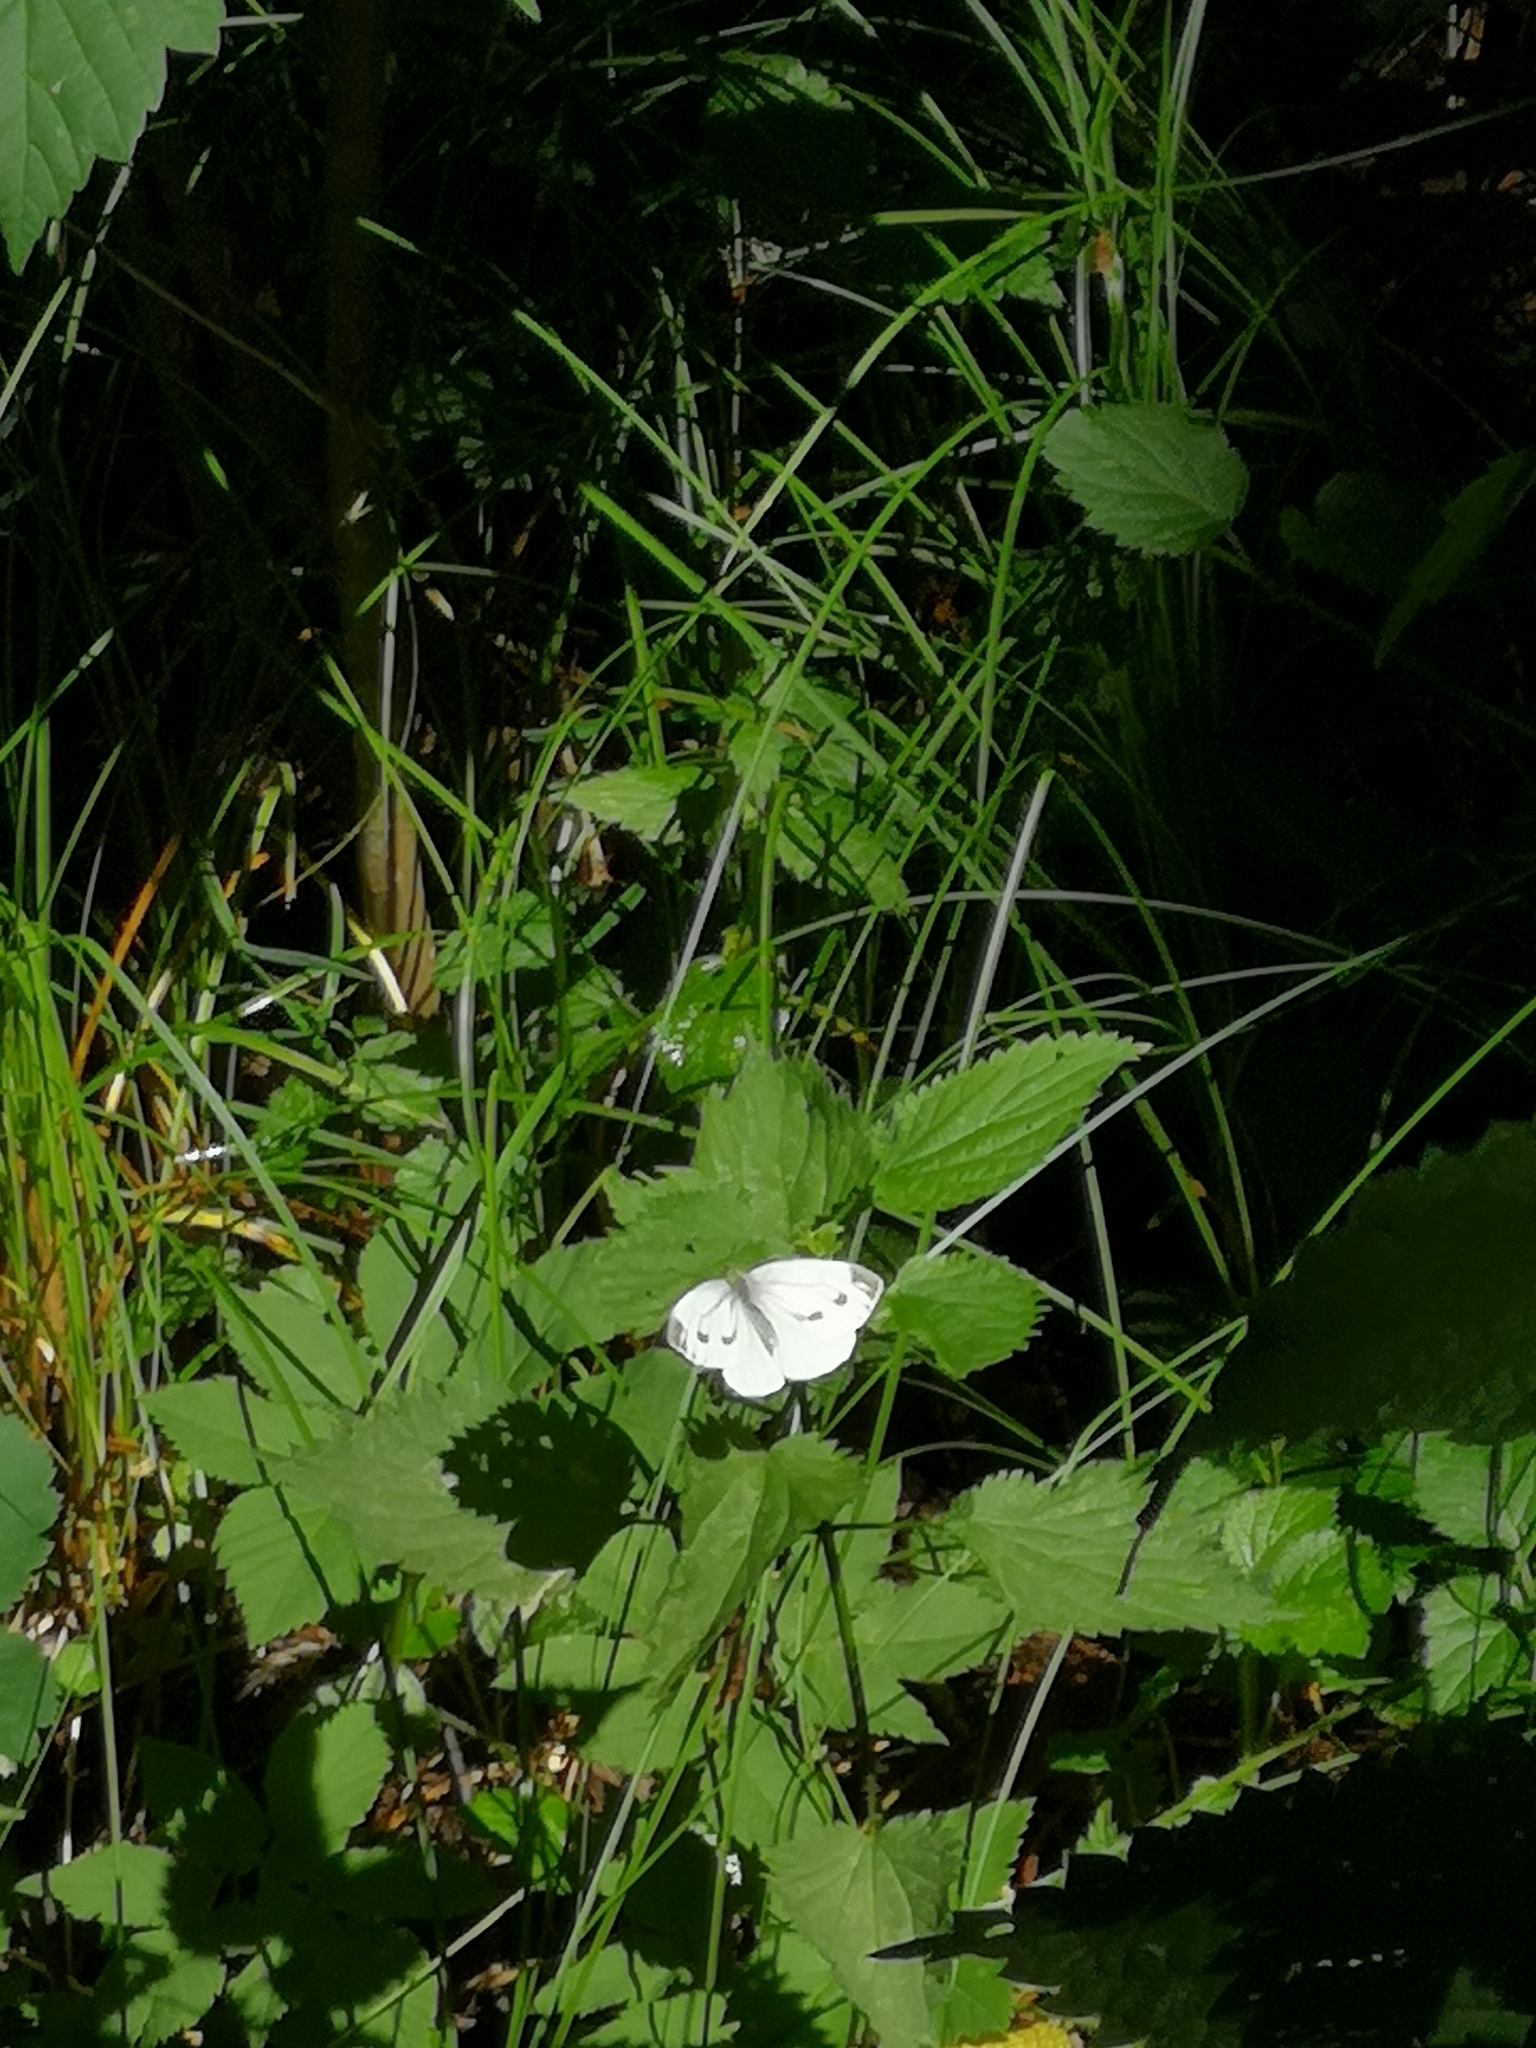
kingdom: Animalia
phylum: Arthropoda
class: Insecta
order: Lepidoptera
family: Pieridae
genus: Pieris
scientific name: Pieris napi
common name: Green-veined white
